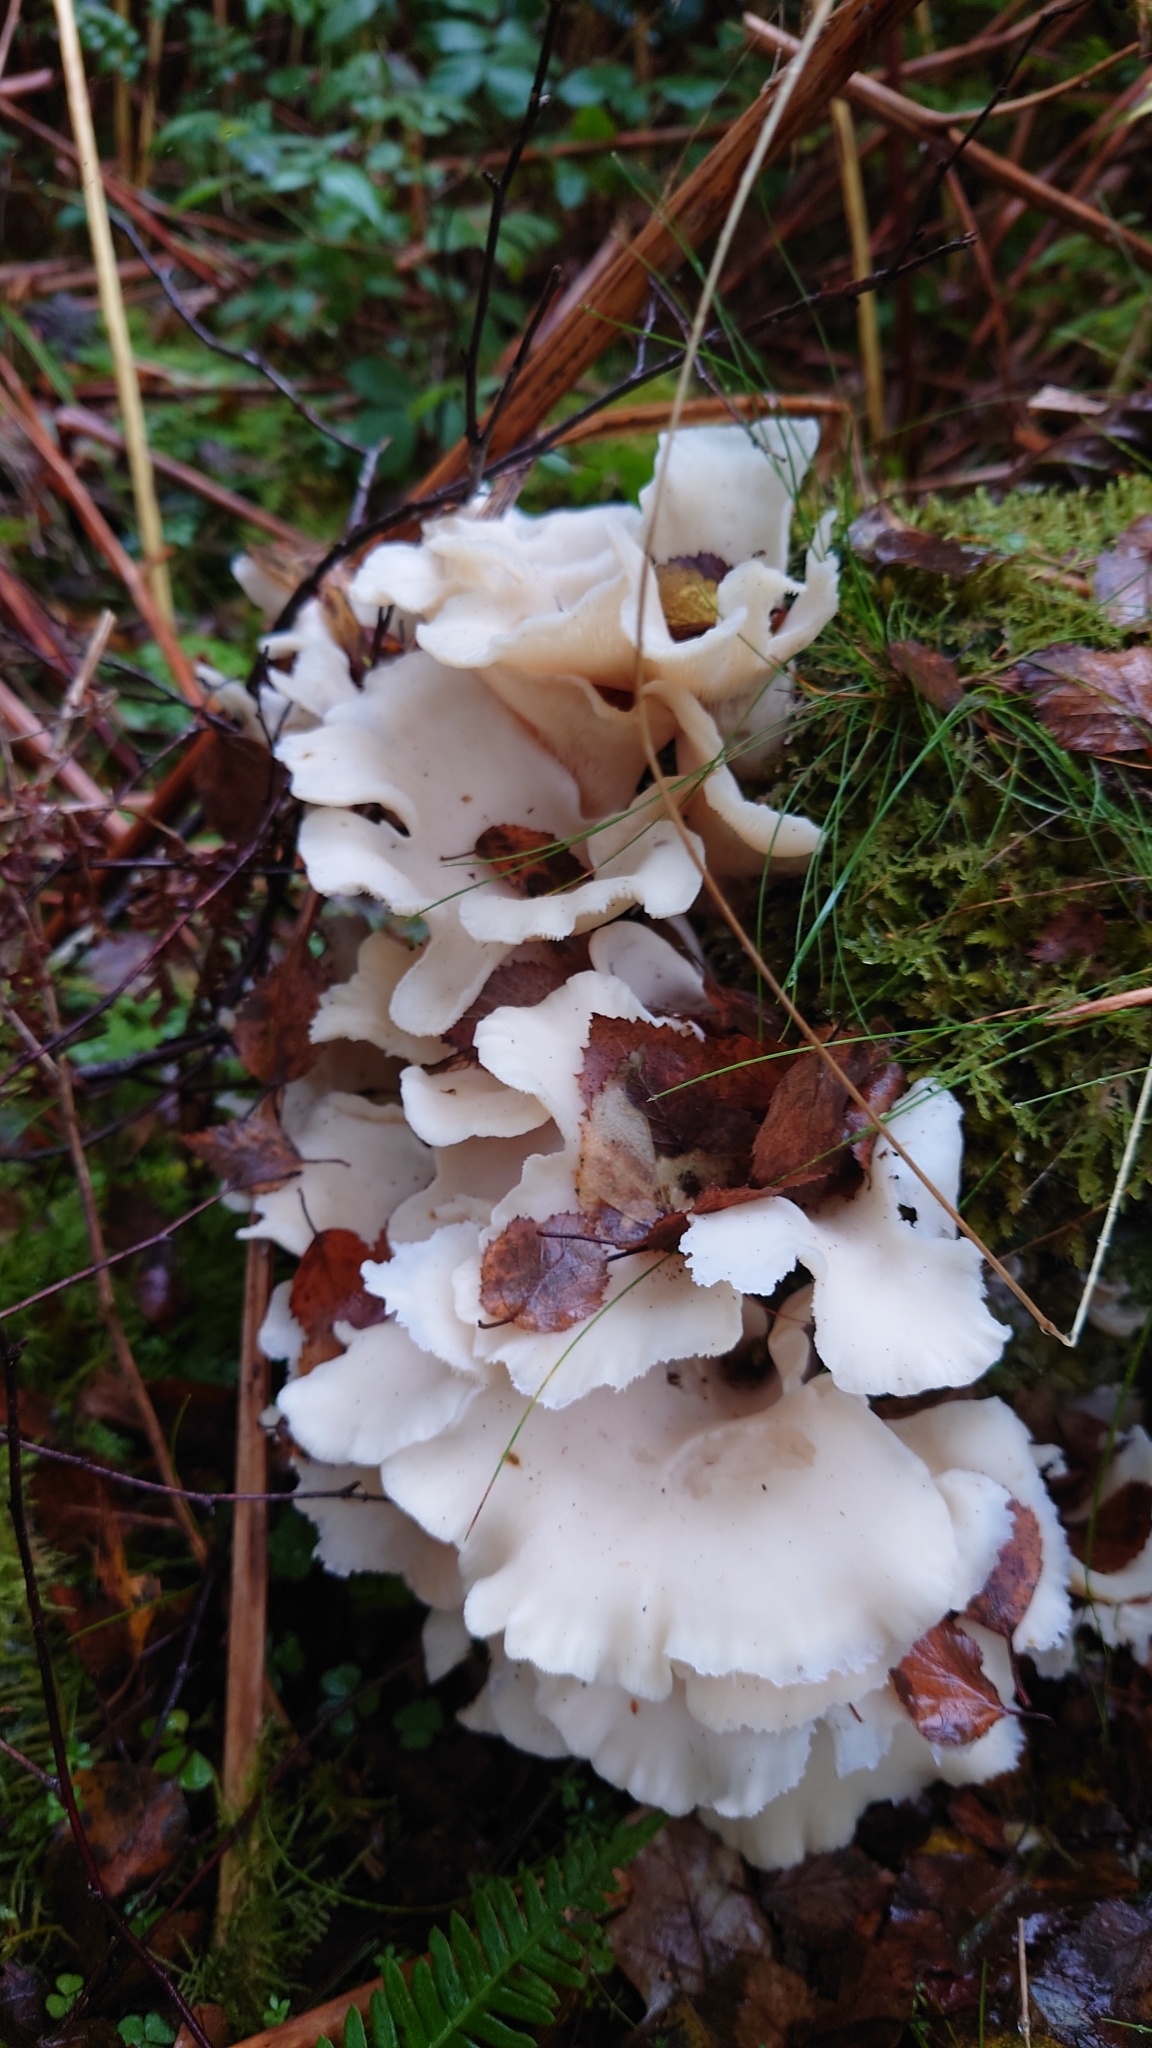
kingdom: Fungi
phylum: Basidiomycota
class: Agaricomycetes
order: Agaricales
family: Marasmiaceae
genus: Pleurocybella
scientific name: Pleurocybella porrigens
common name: Angel's wings
